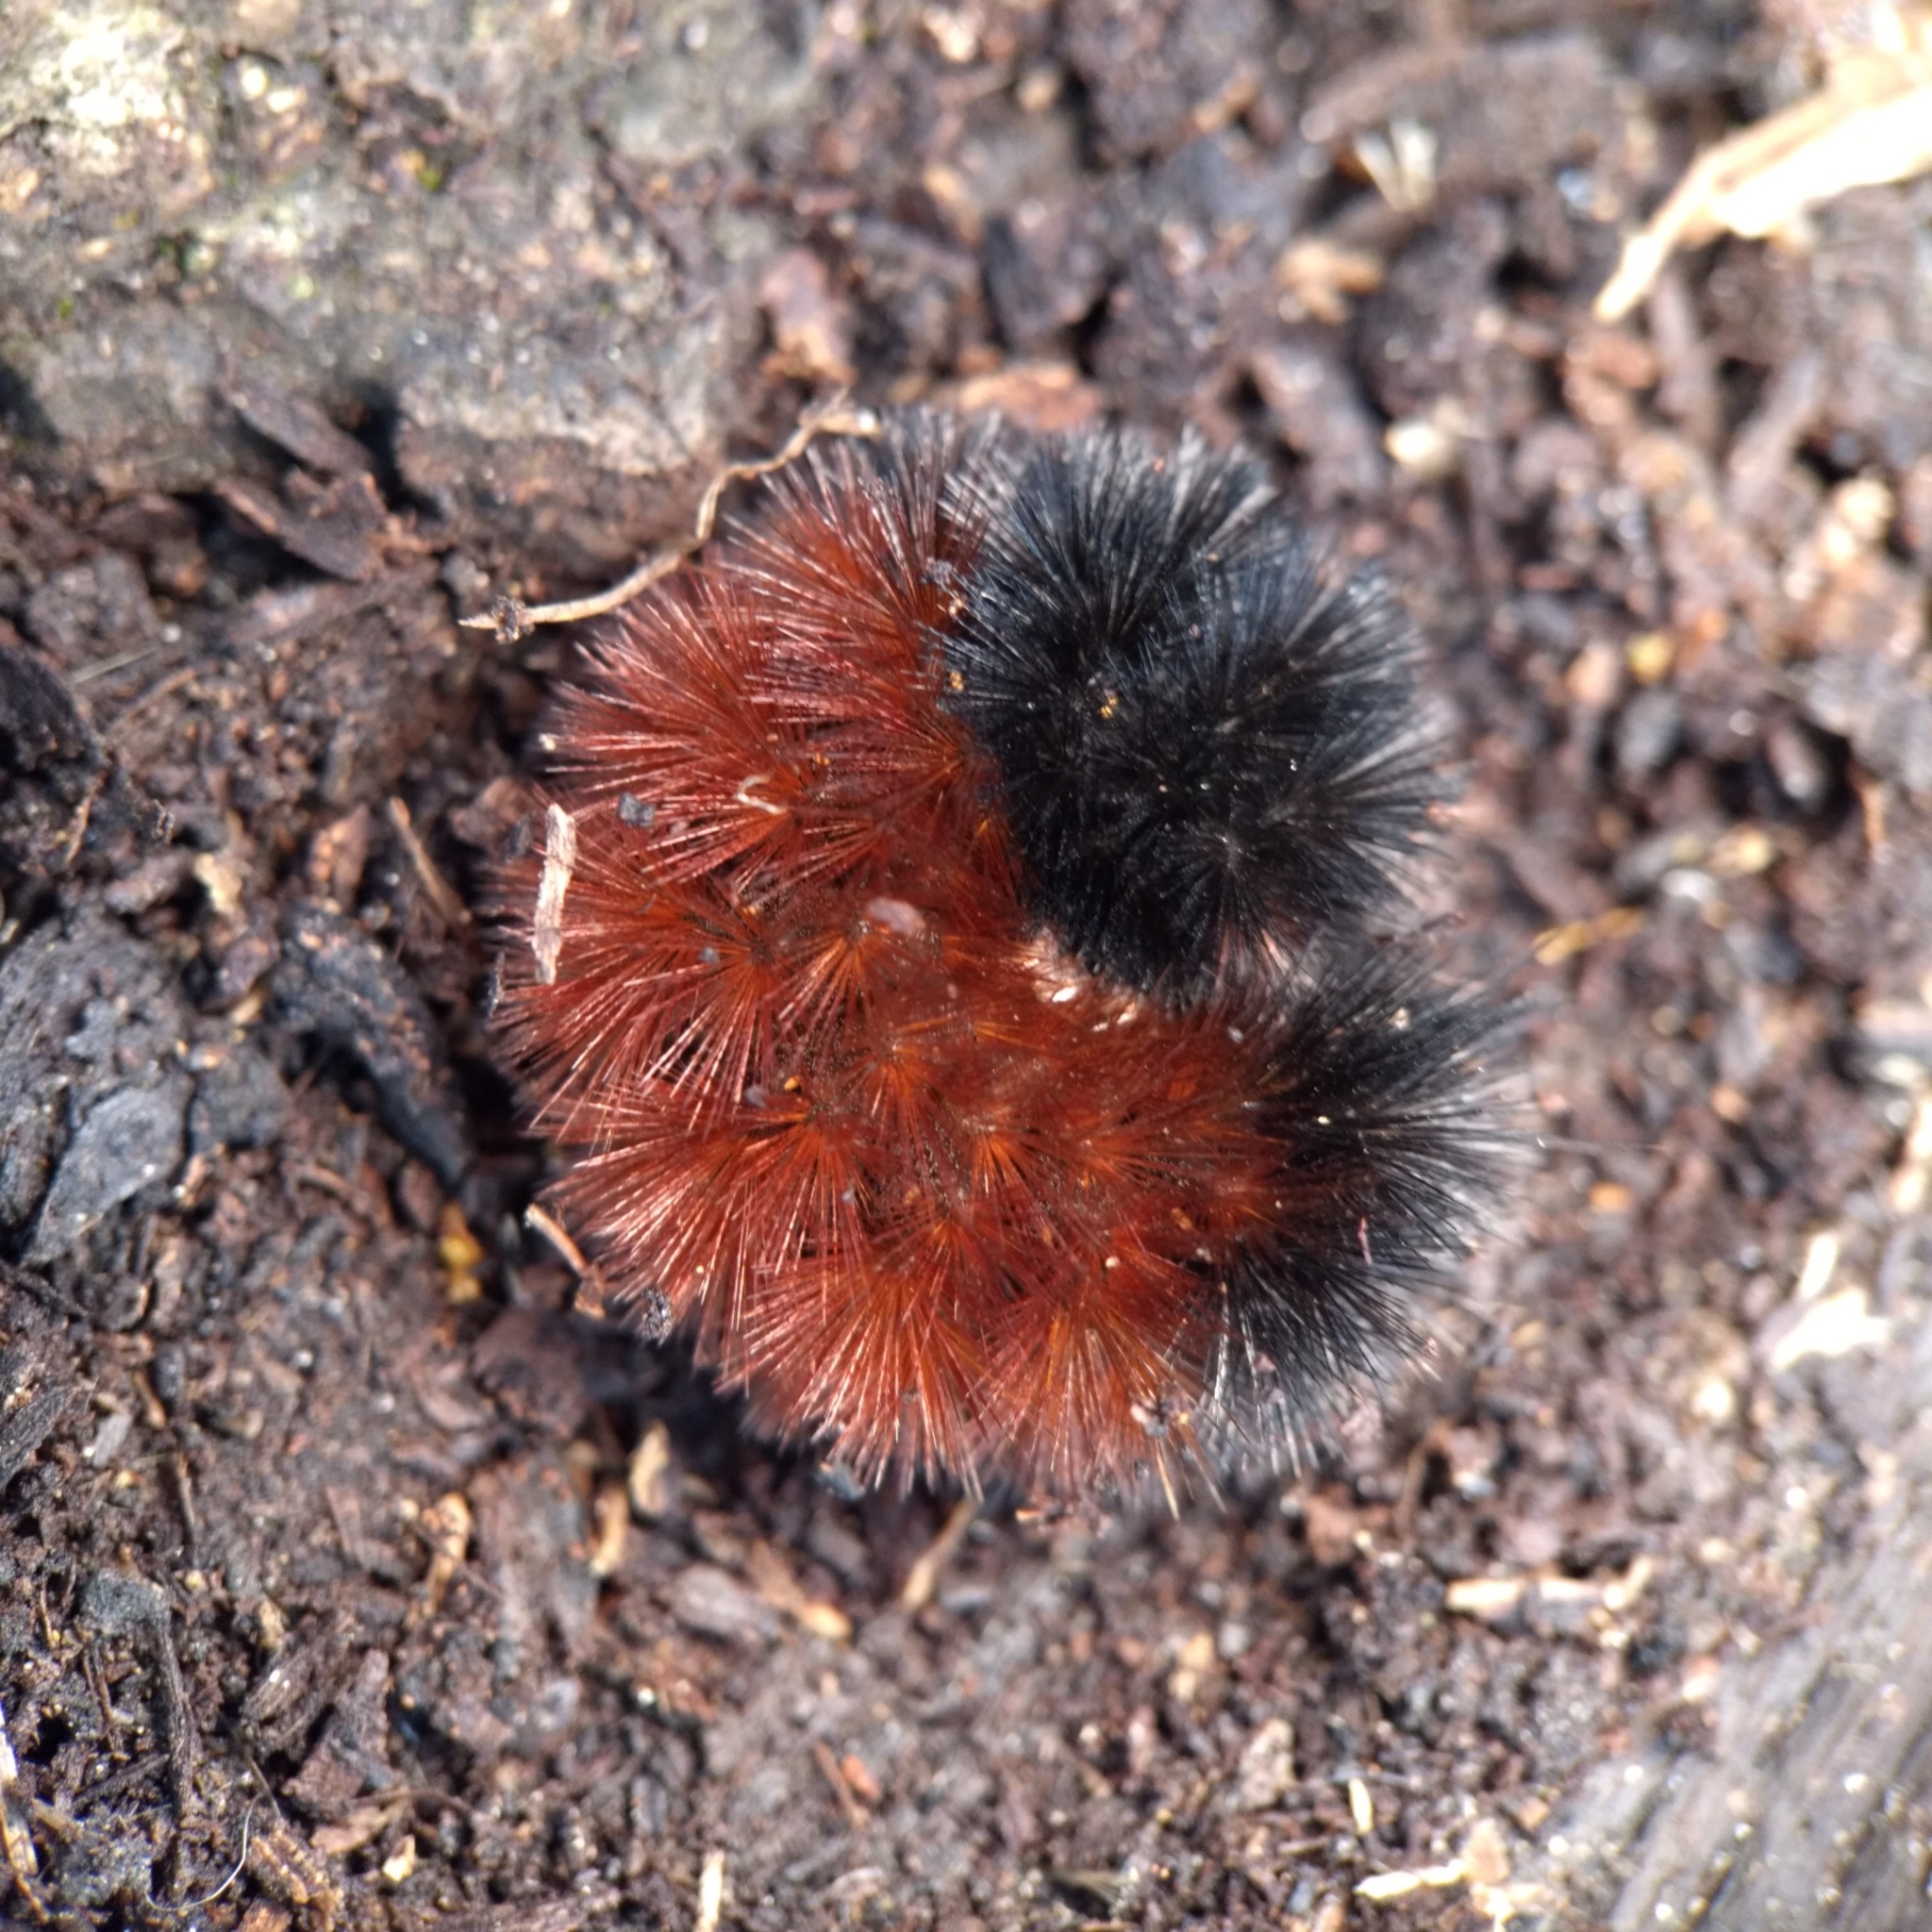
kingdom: Animalia
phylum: Arthropoda
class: Insecta
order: Lepidoptera
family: Erebidae
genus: Pyrrharctia
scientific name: Pyrrharctia isabella
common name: Isabella tiger moth
